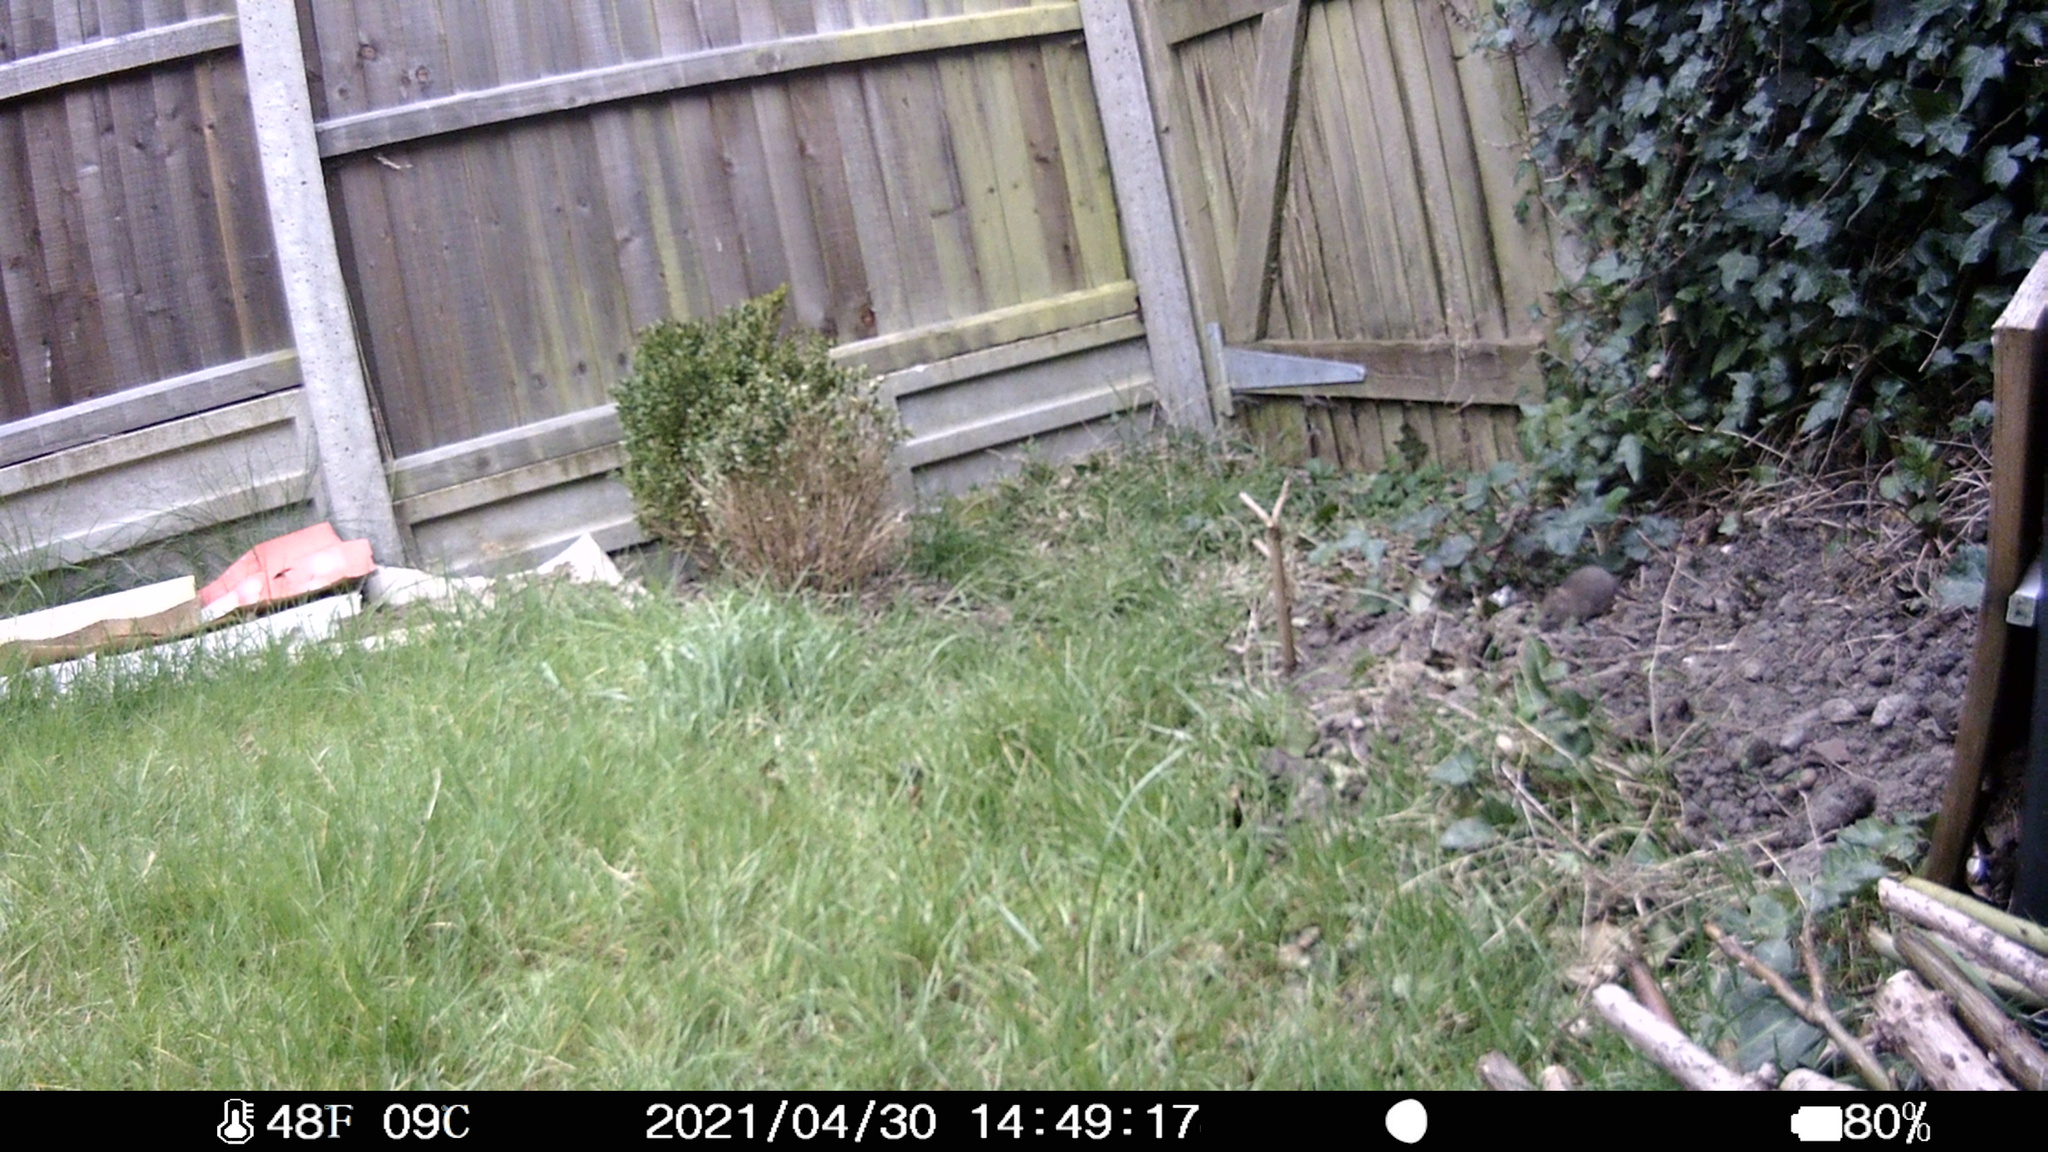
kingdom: Animalia
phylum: Chordata
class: Mammalia
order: Rodentia
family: Muridae
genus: Rattus
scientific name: Rattus norvegicus
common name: Brown rat
